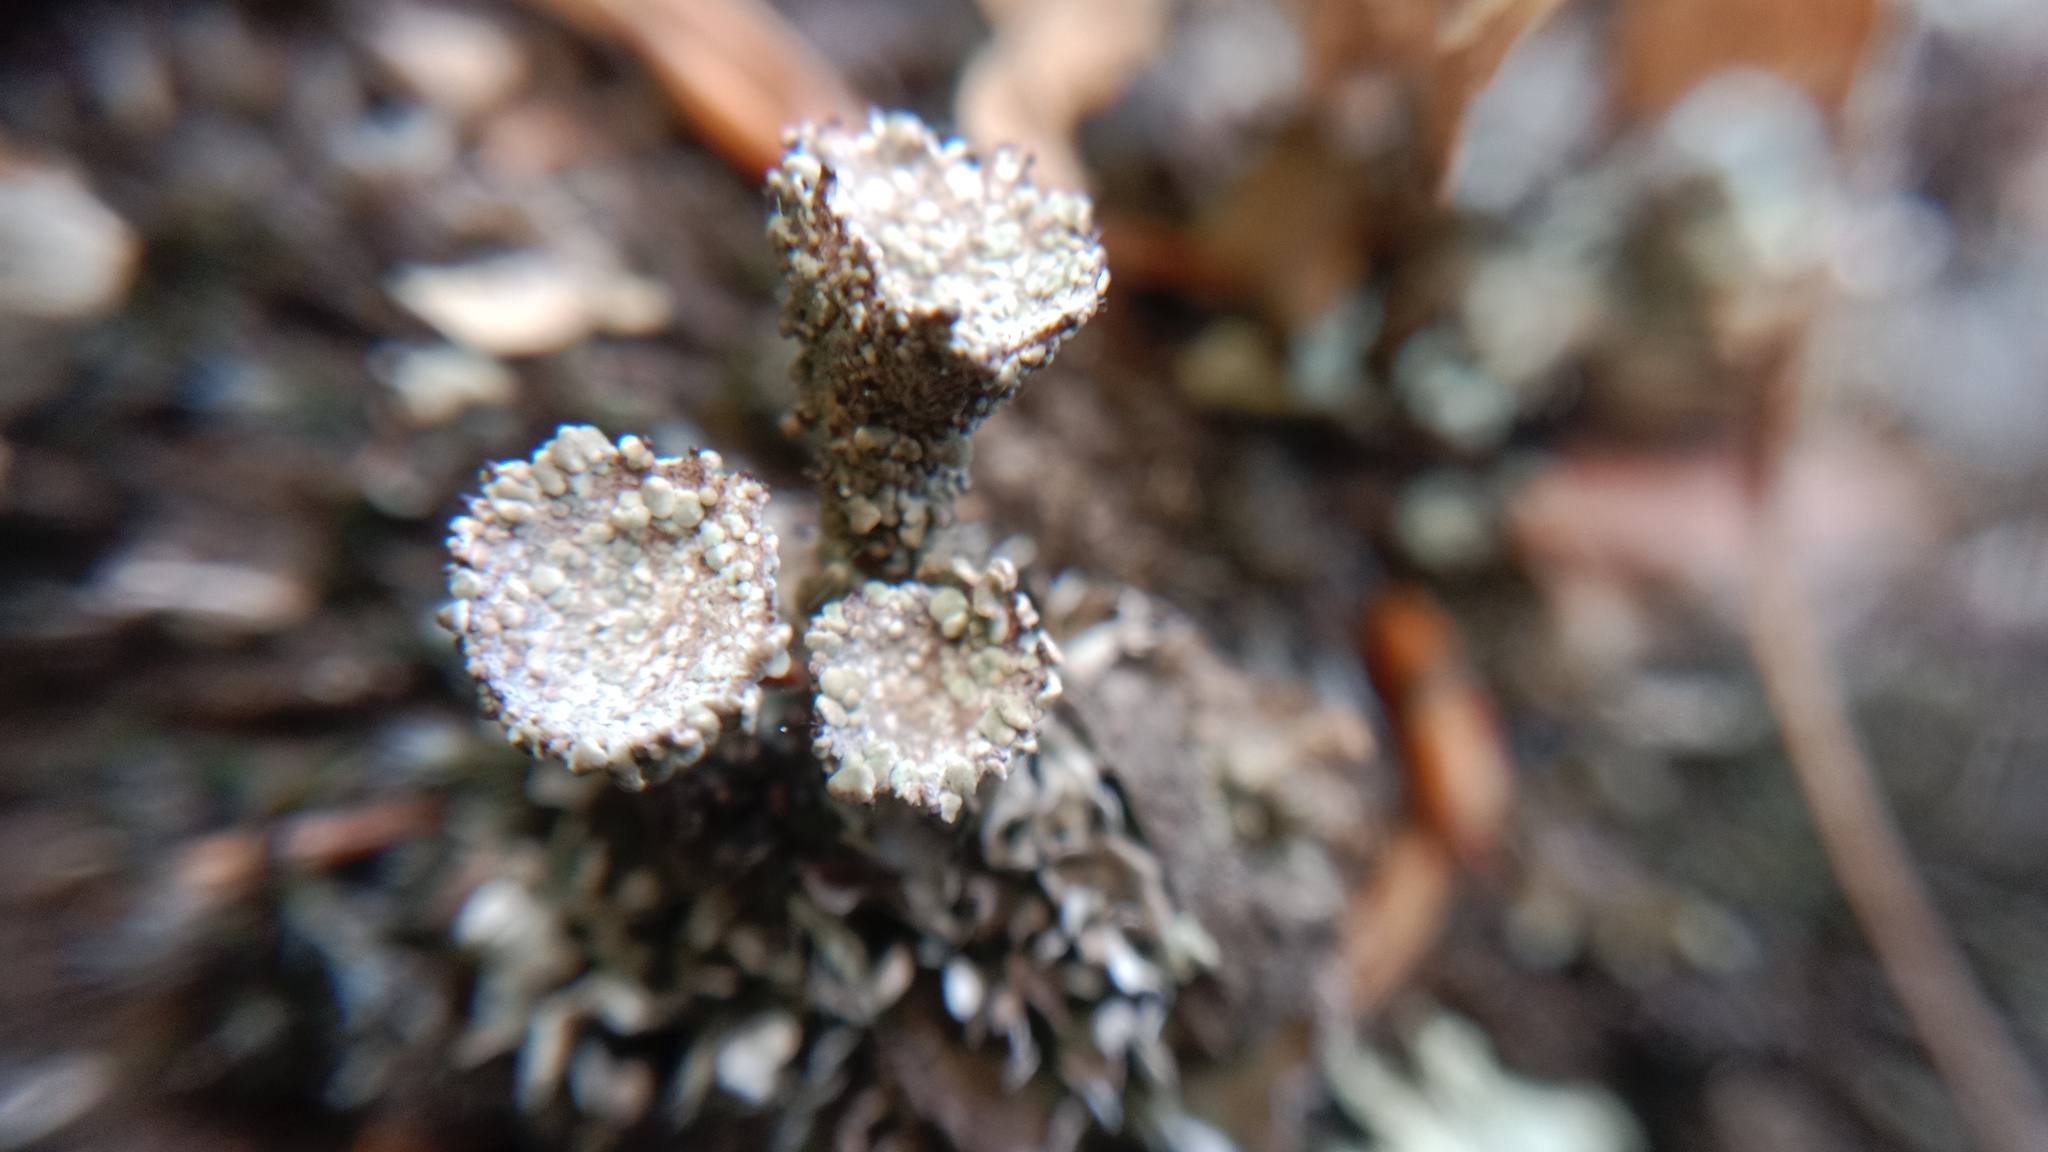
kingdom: Fungi
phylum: Ascomycota
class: Lecanoromycetes
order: Lecanorales
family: Cladoniaceae
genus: Cladonia
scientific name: Cladonia pyxidata
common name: Pebbled pixie cup
